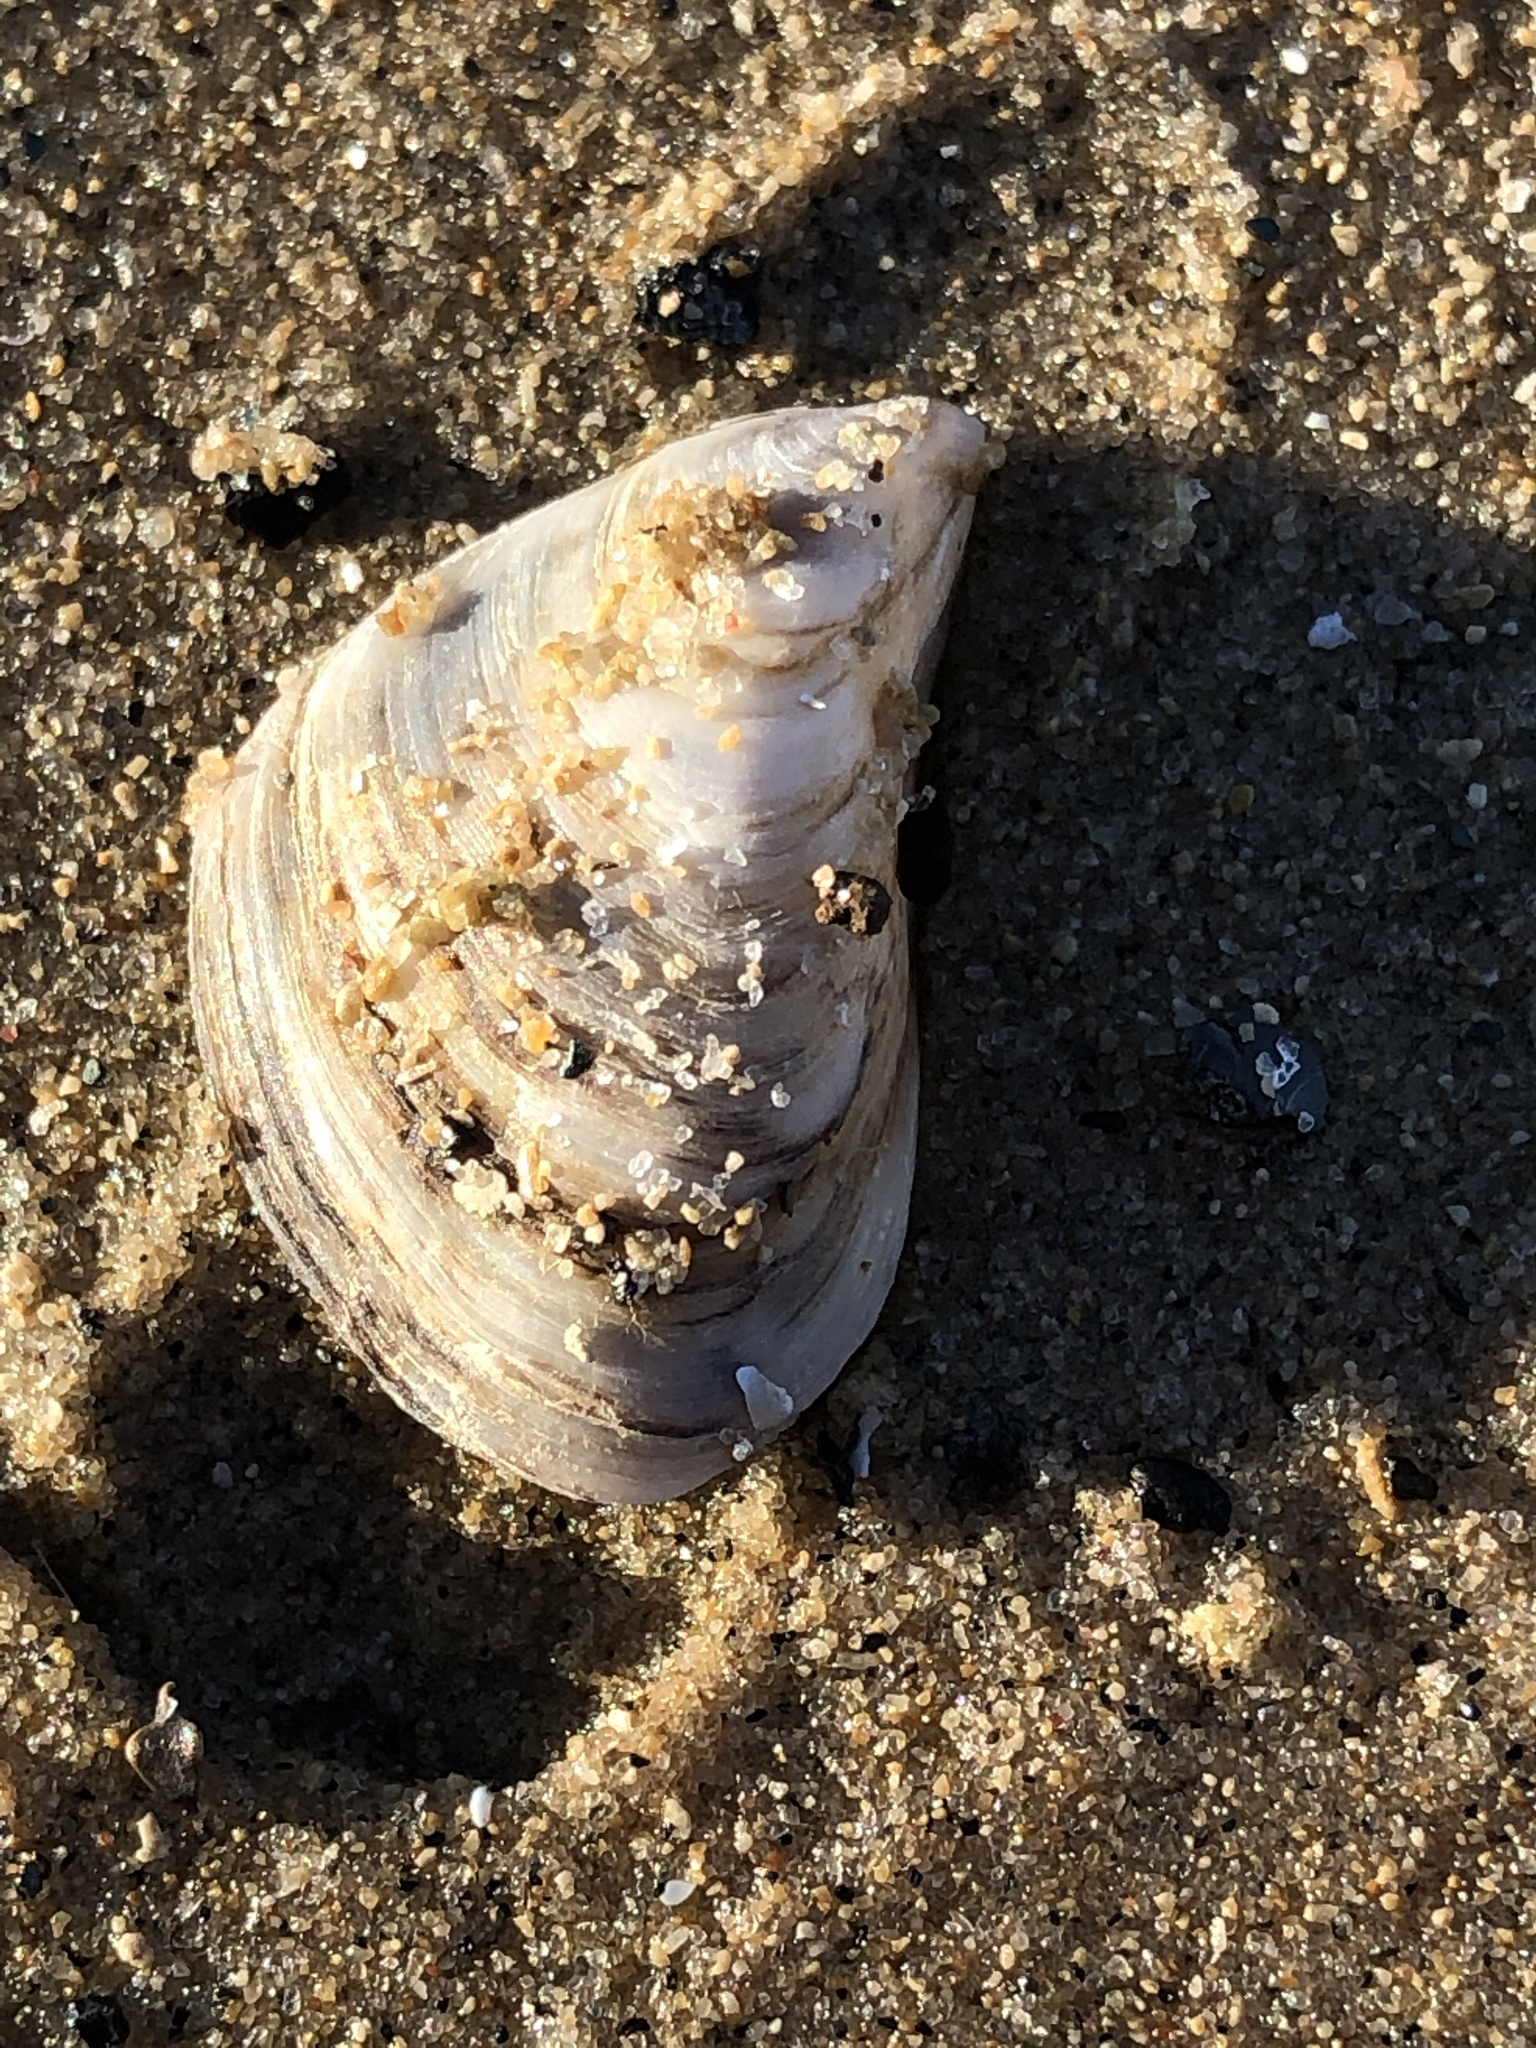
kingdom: Animalia
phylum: Mollusca
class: Bivalvia
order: Myida
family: Dreissenidae
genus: Dreissena
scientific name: Dreissena bugensis
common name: Quagga mussel
